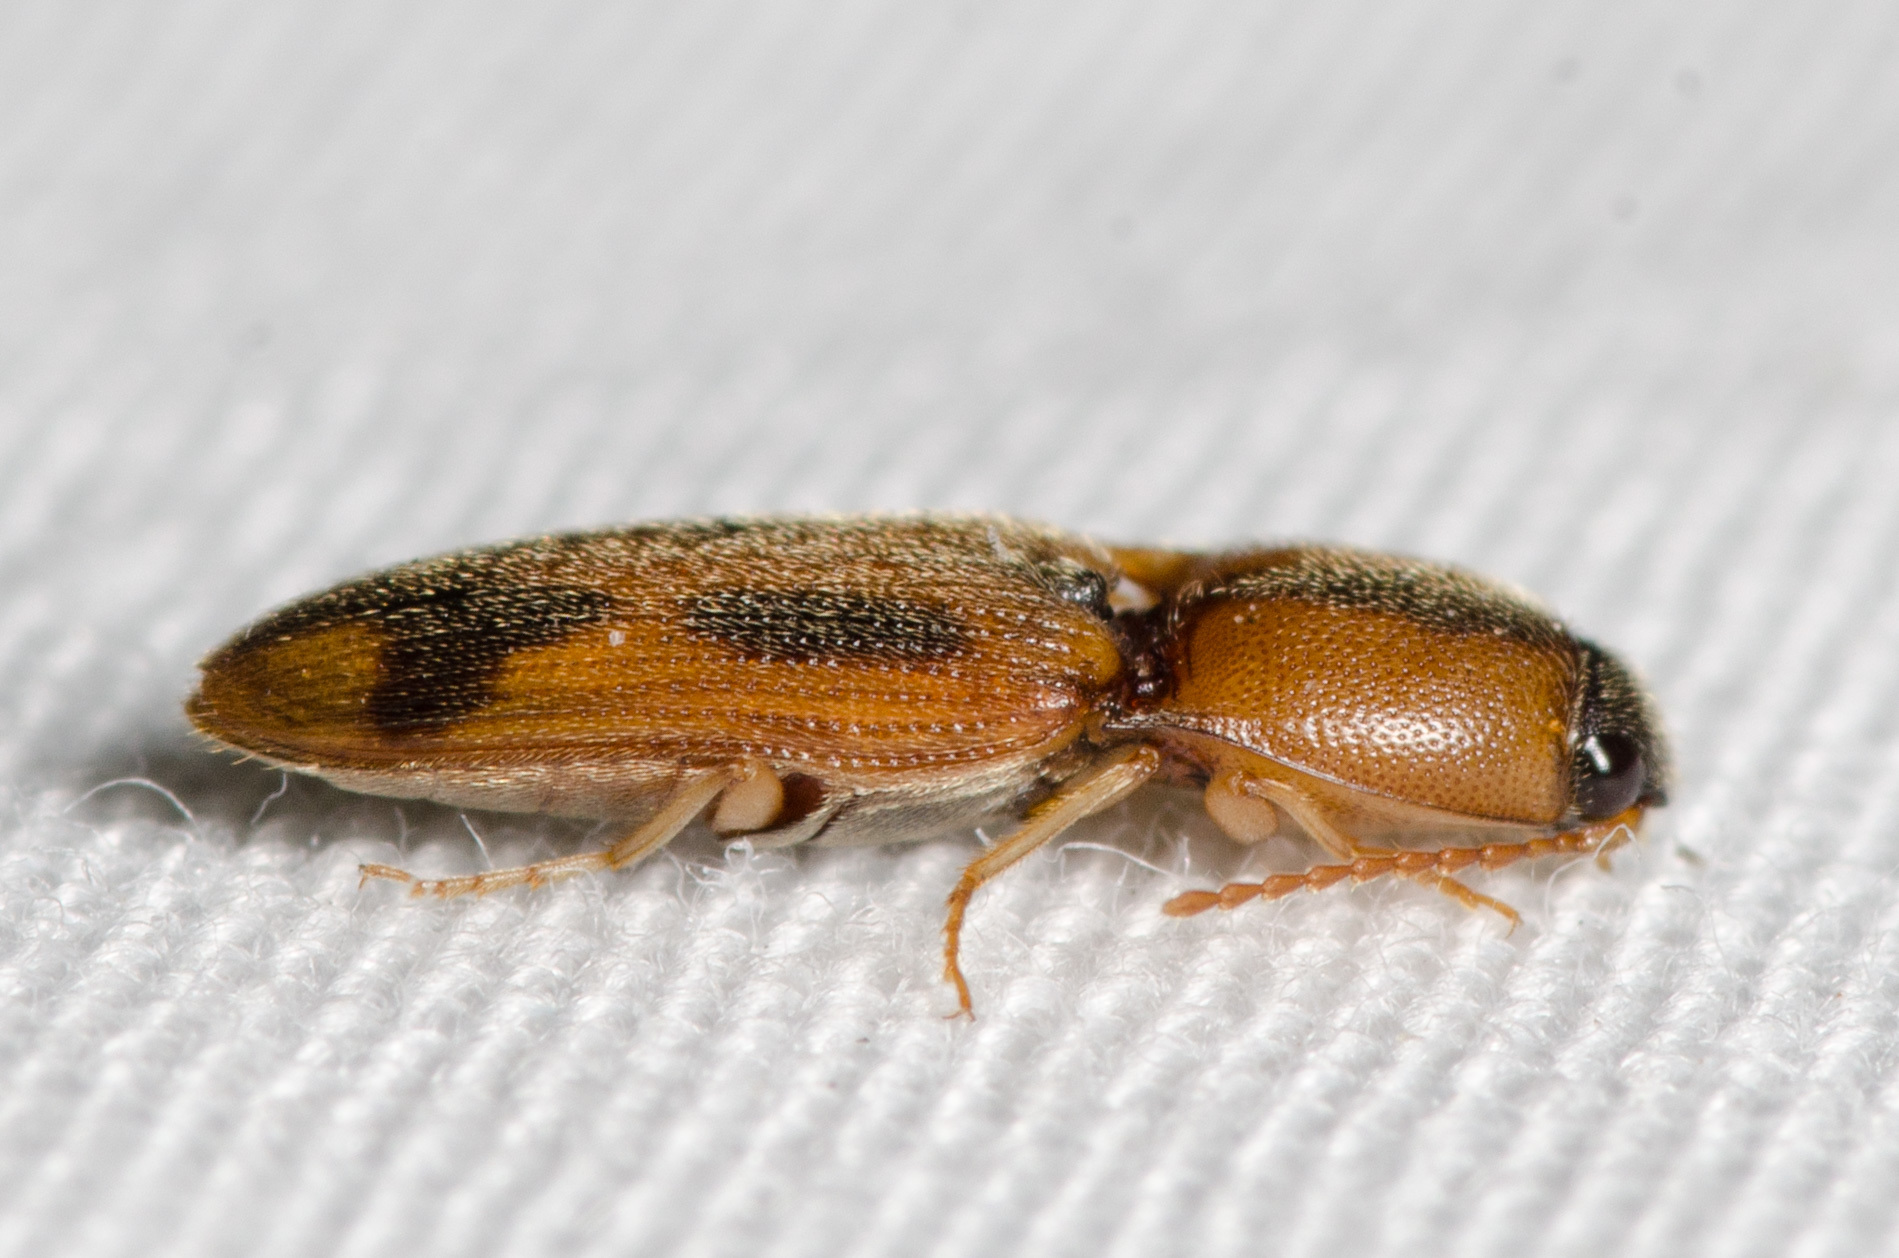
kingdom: Animalia
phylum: Arthropoda
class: Insecta
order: Coleoptera
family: Elateridae
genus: Aeolus
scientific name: Aeolus
